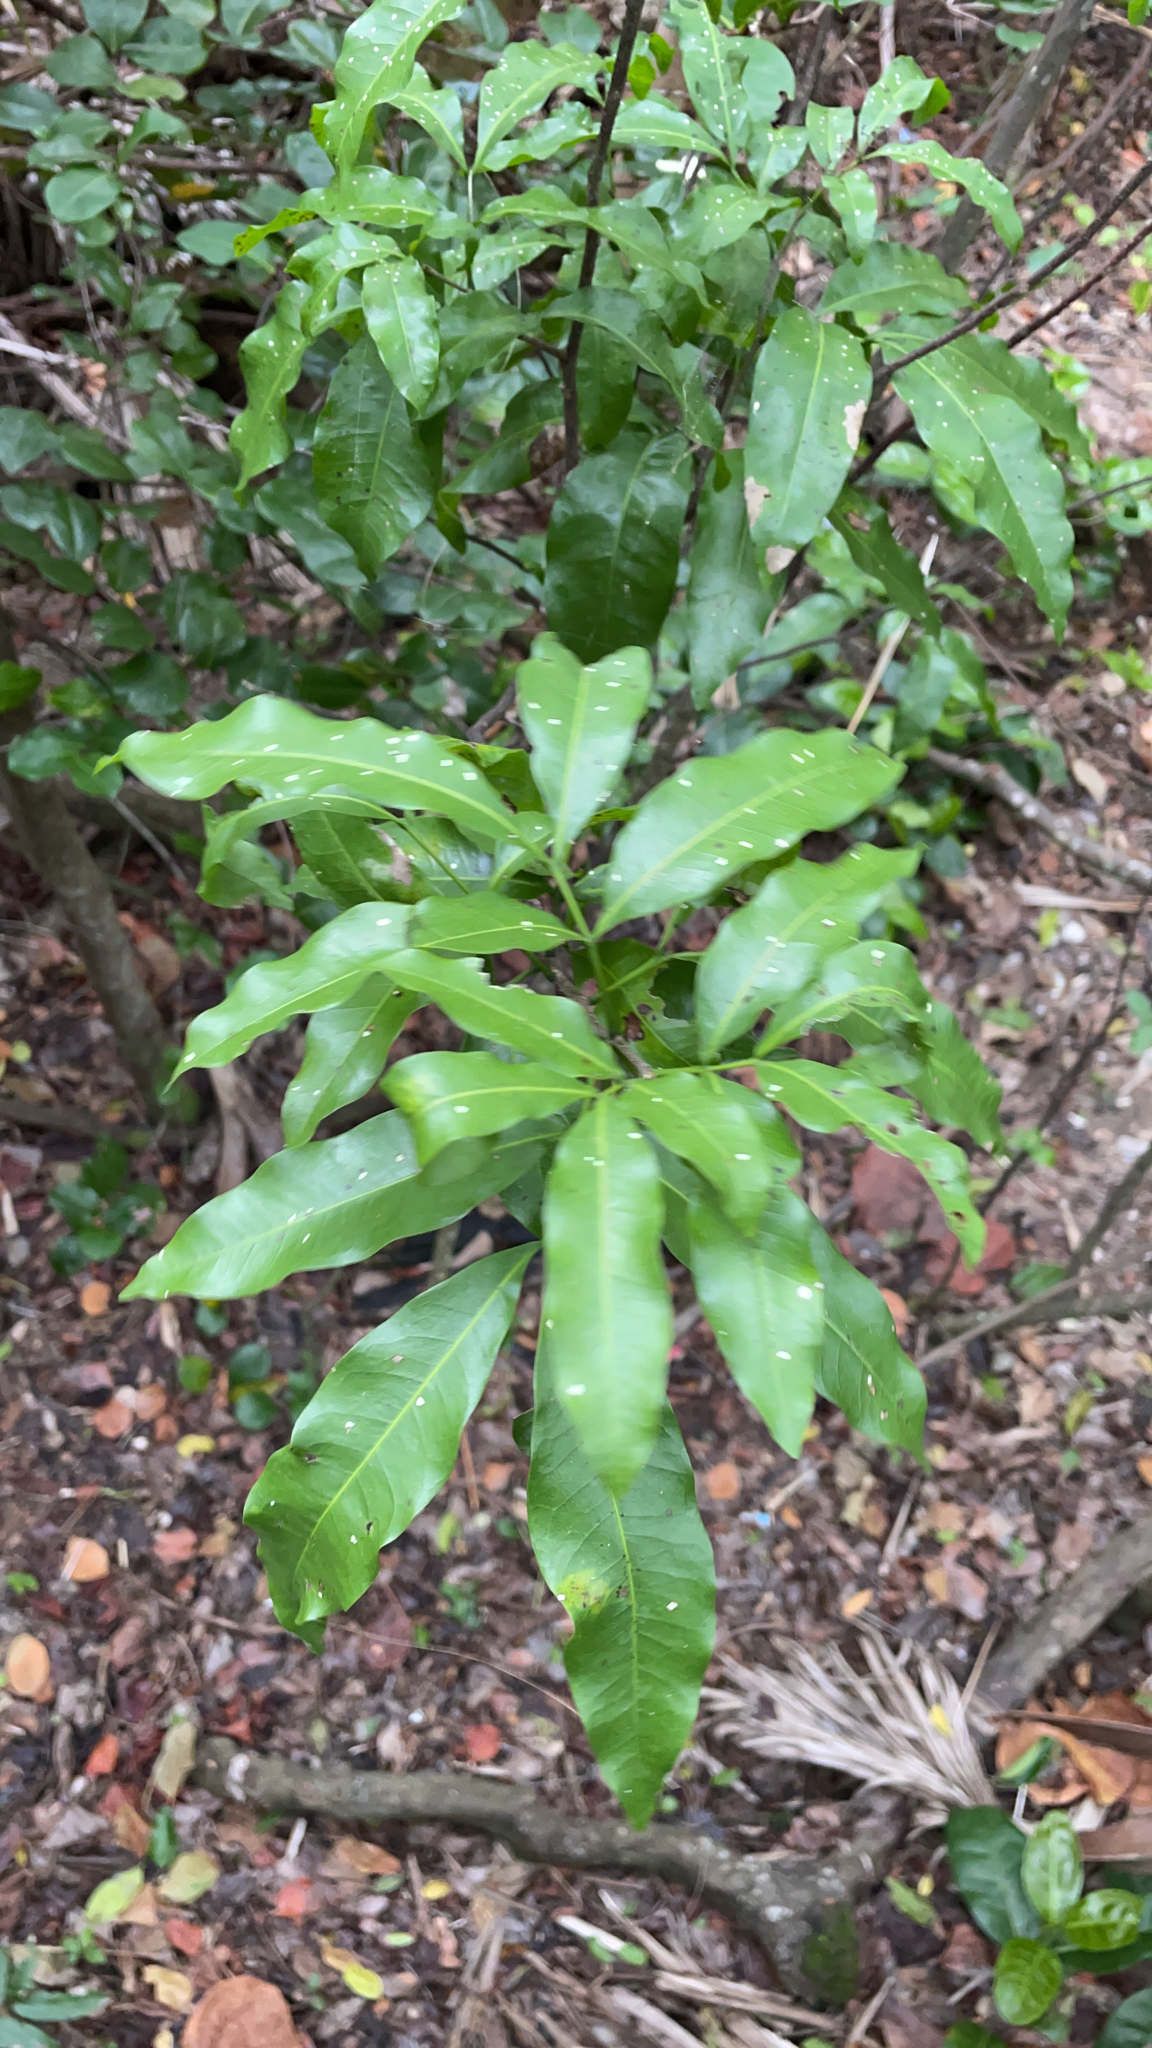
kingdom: Plantae
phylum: Tracheophyta
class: Magnoliopsida
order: Sapindales
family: Sapindaceae
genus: Exothea
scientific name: Exothea paniculata
